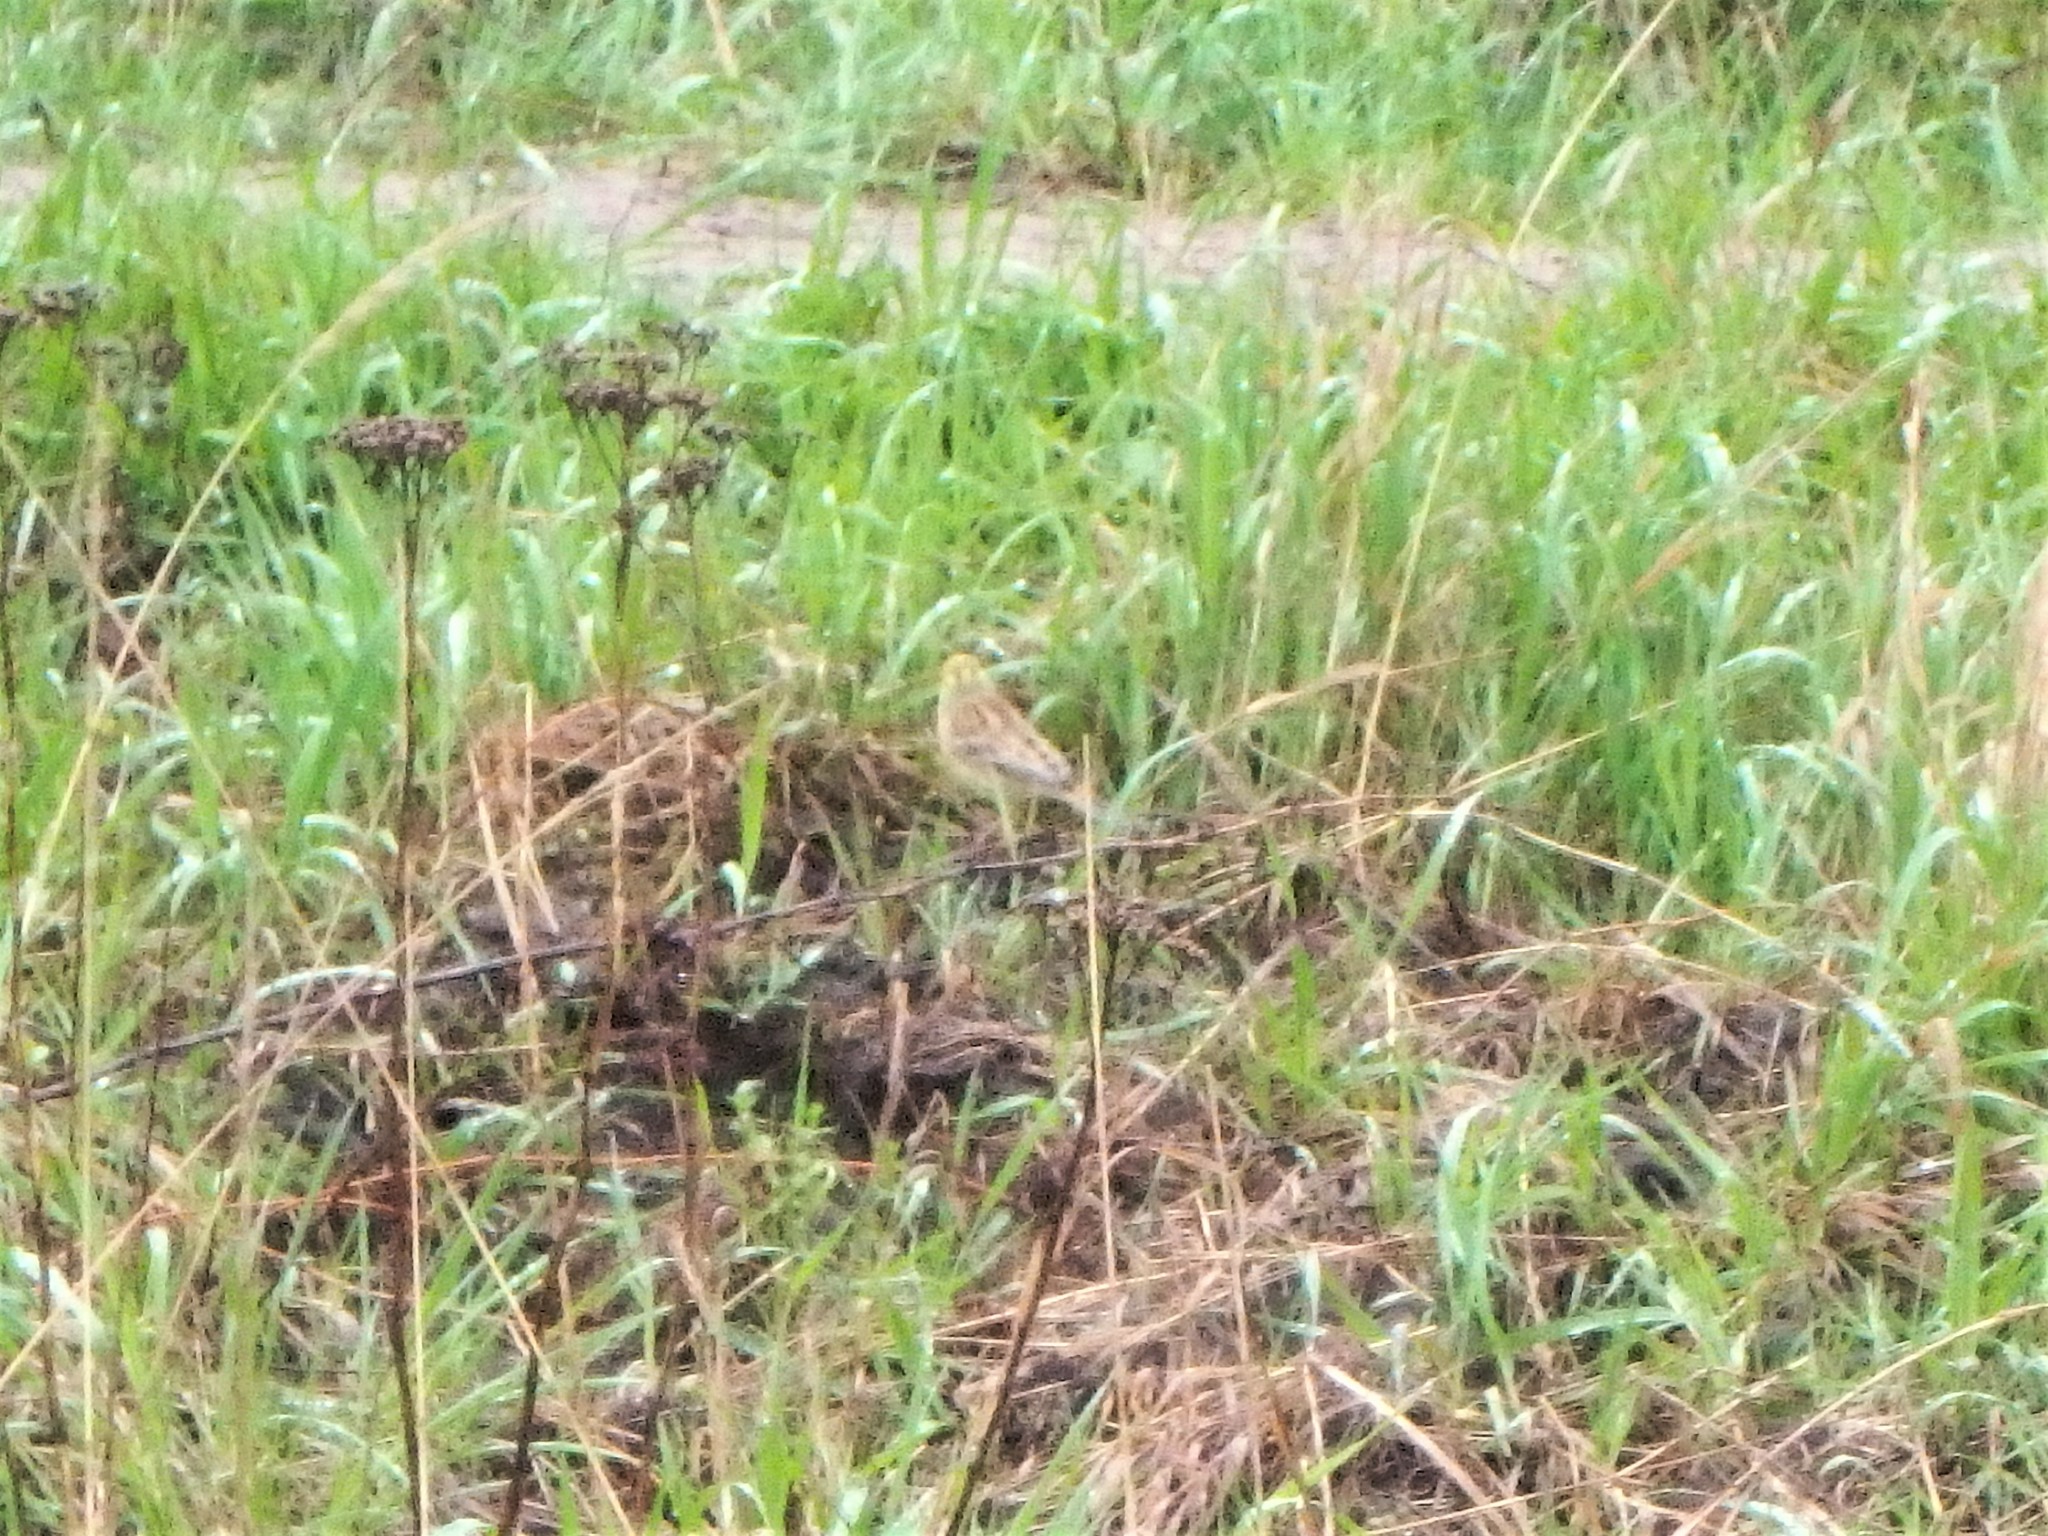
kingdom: Animalia
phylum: Chordata
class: Aves
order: Passeriformes
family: Emberizidae
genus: Emberiza
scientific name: Emberiza citrinella
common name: Yellowhammer
